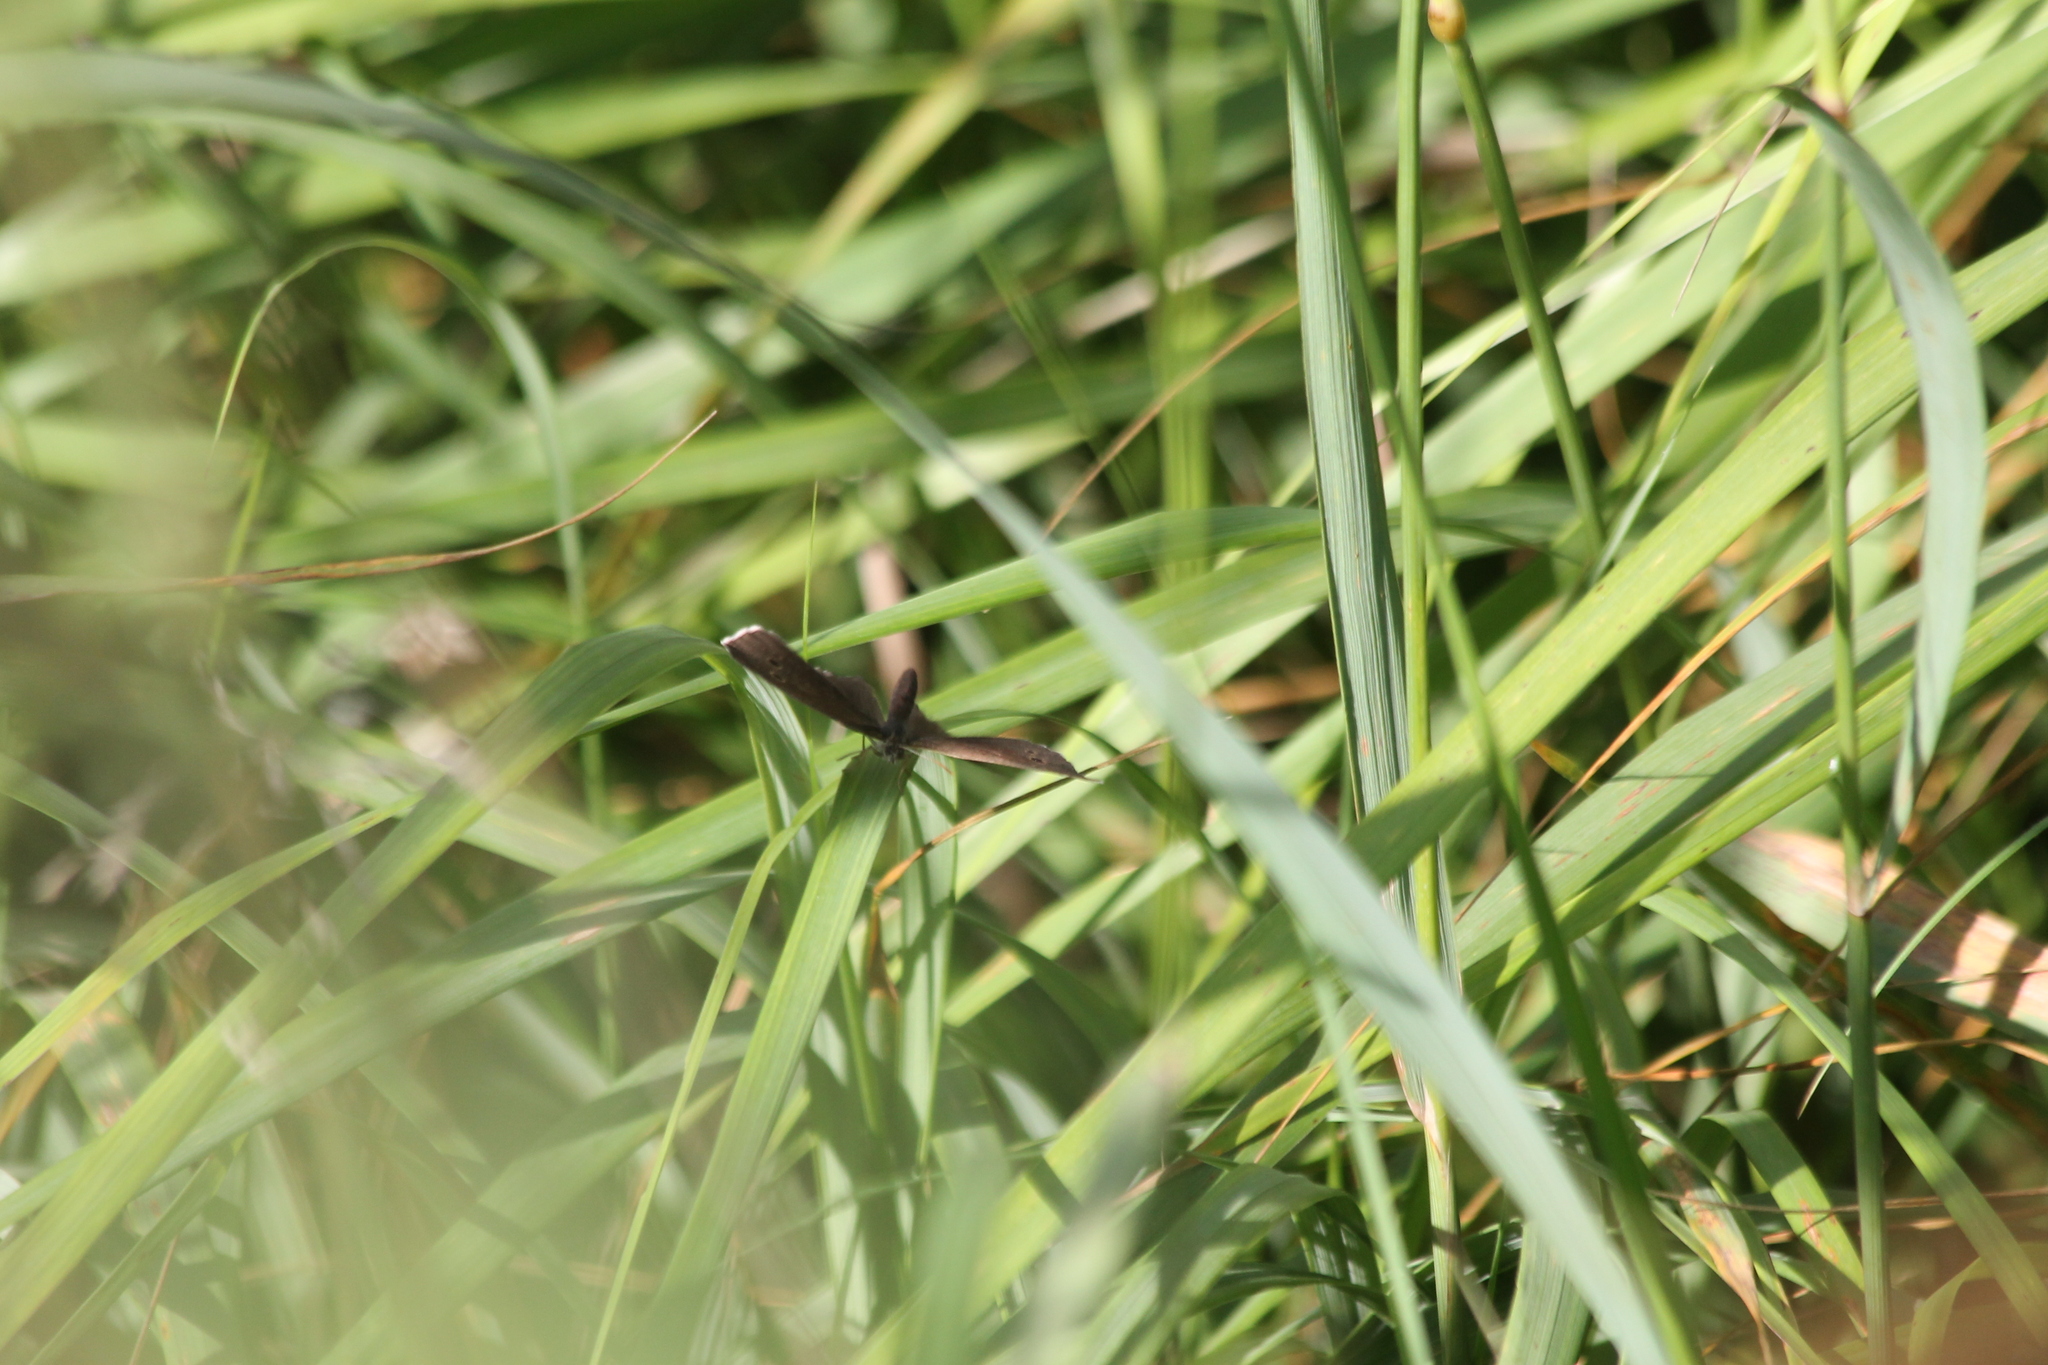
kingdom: Animalia
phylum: Arthropoda
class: Insecta
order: Lepidoptera
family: Nymphalidae
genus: Aphantopus
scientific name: Aphantopus hyperantus
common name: Ringlet
